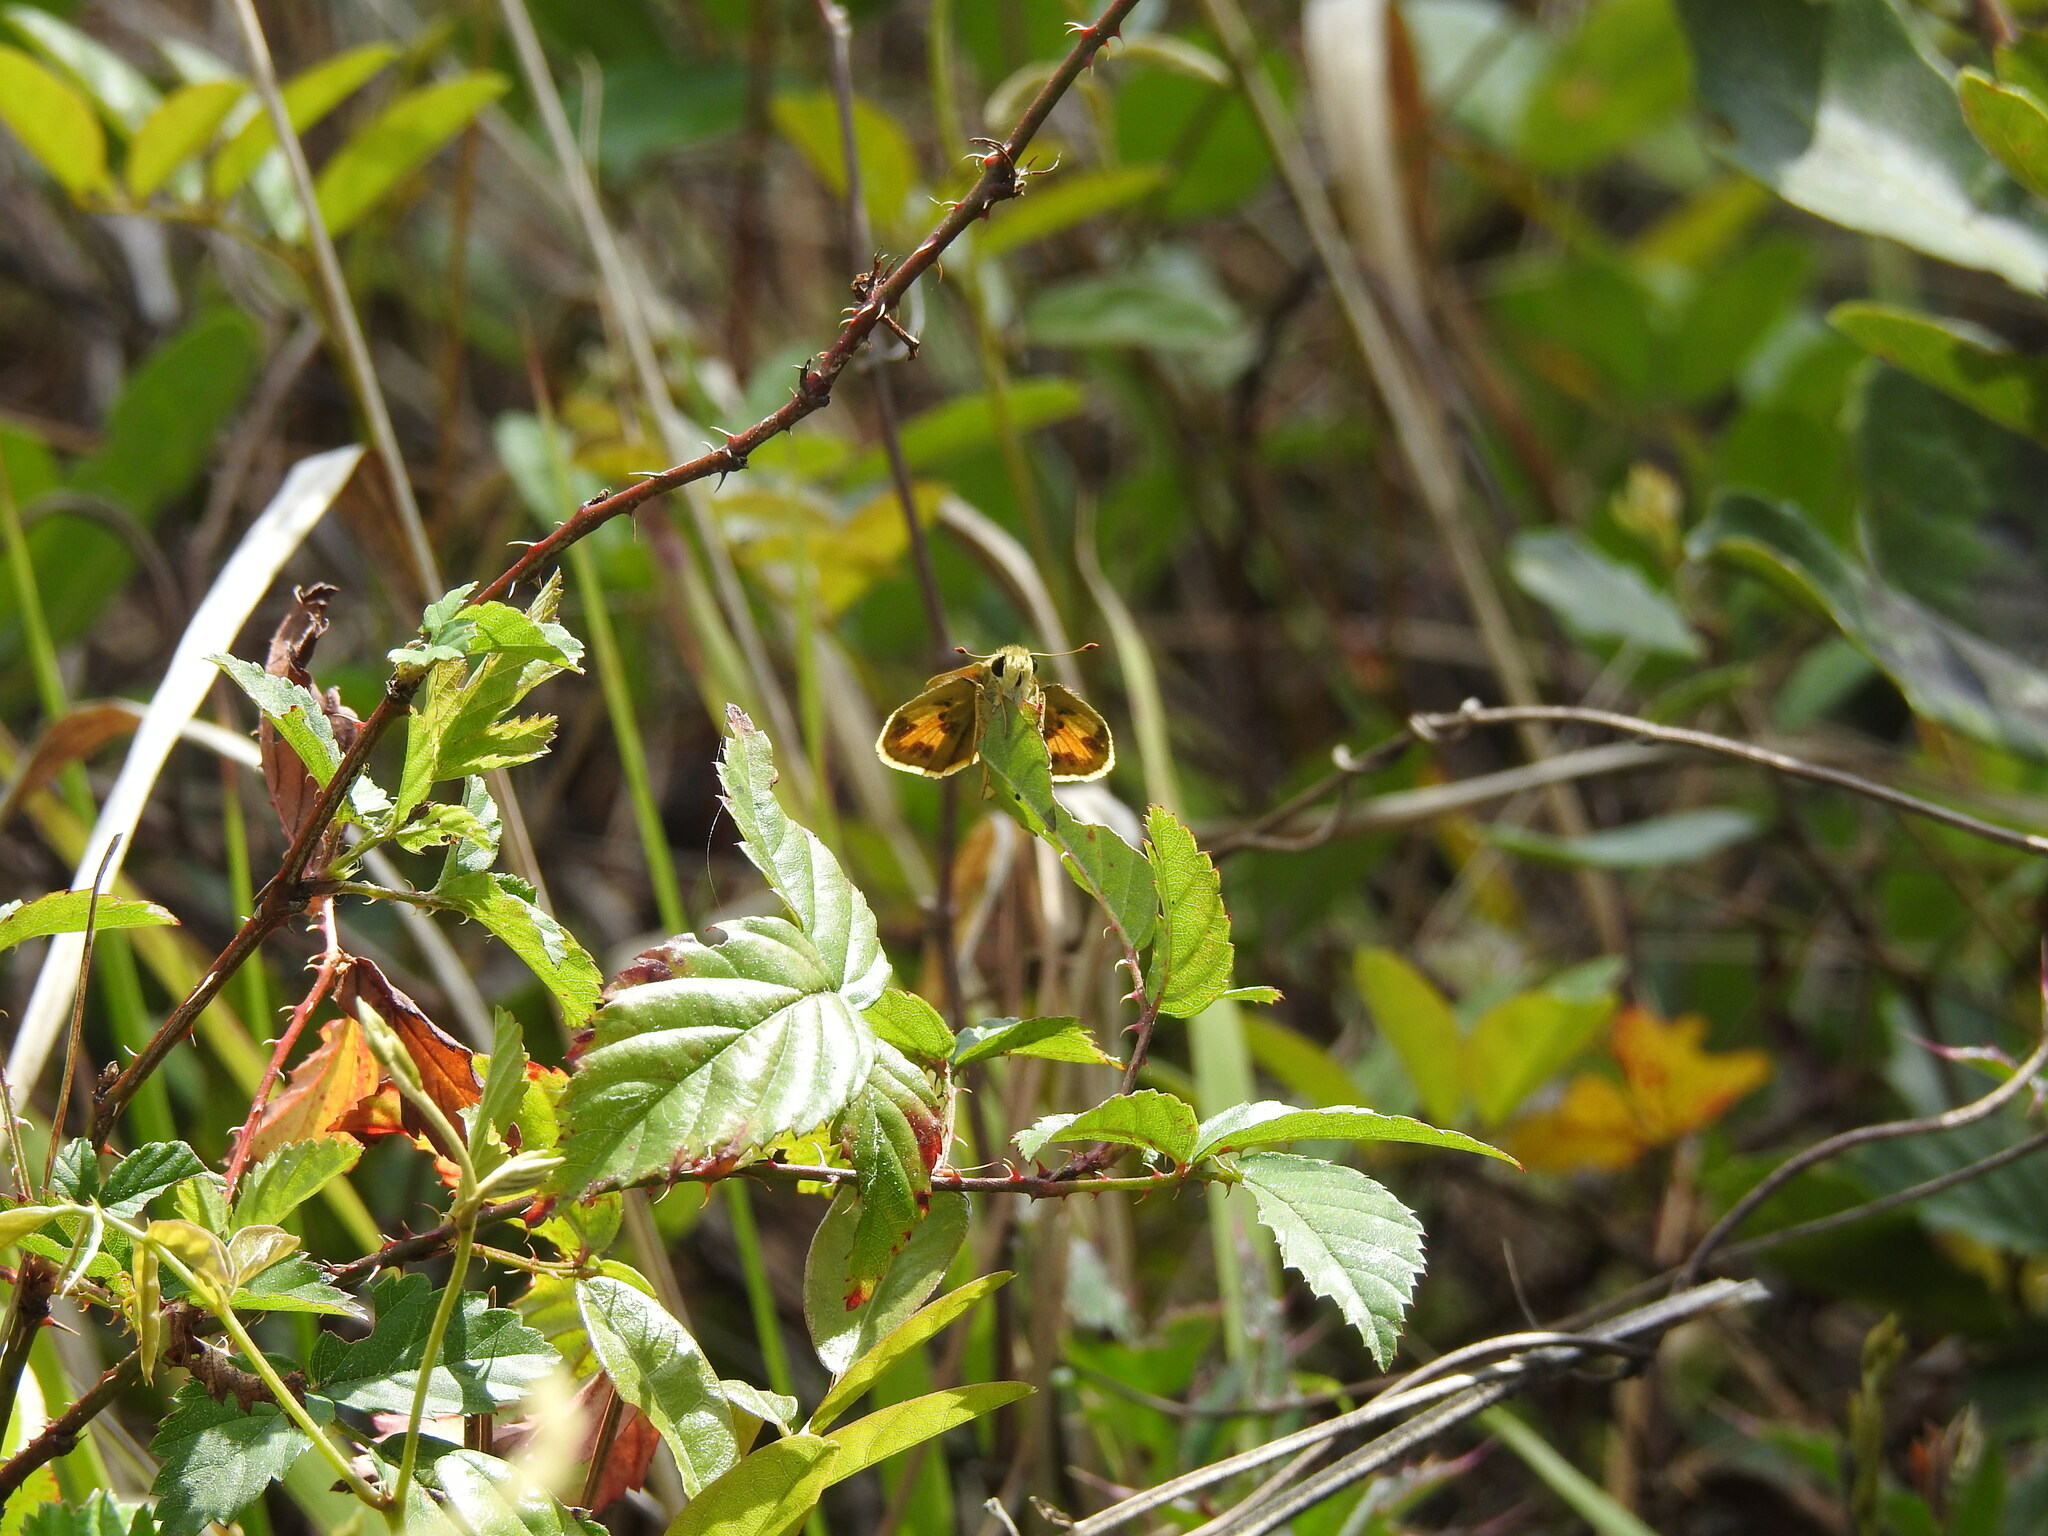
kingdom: Animalia
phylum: Arthropoda
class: Insecta
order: Lepidoptera
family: Hesperiidae
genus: Polites
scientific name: Polites vibex
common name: Whirlabout
